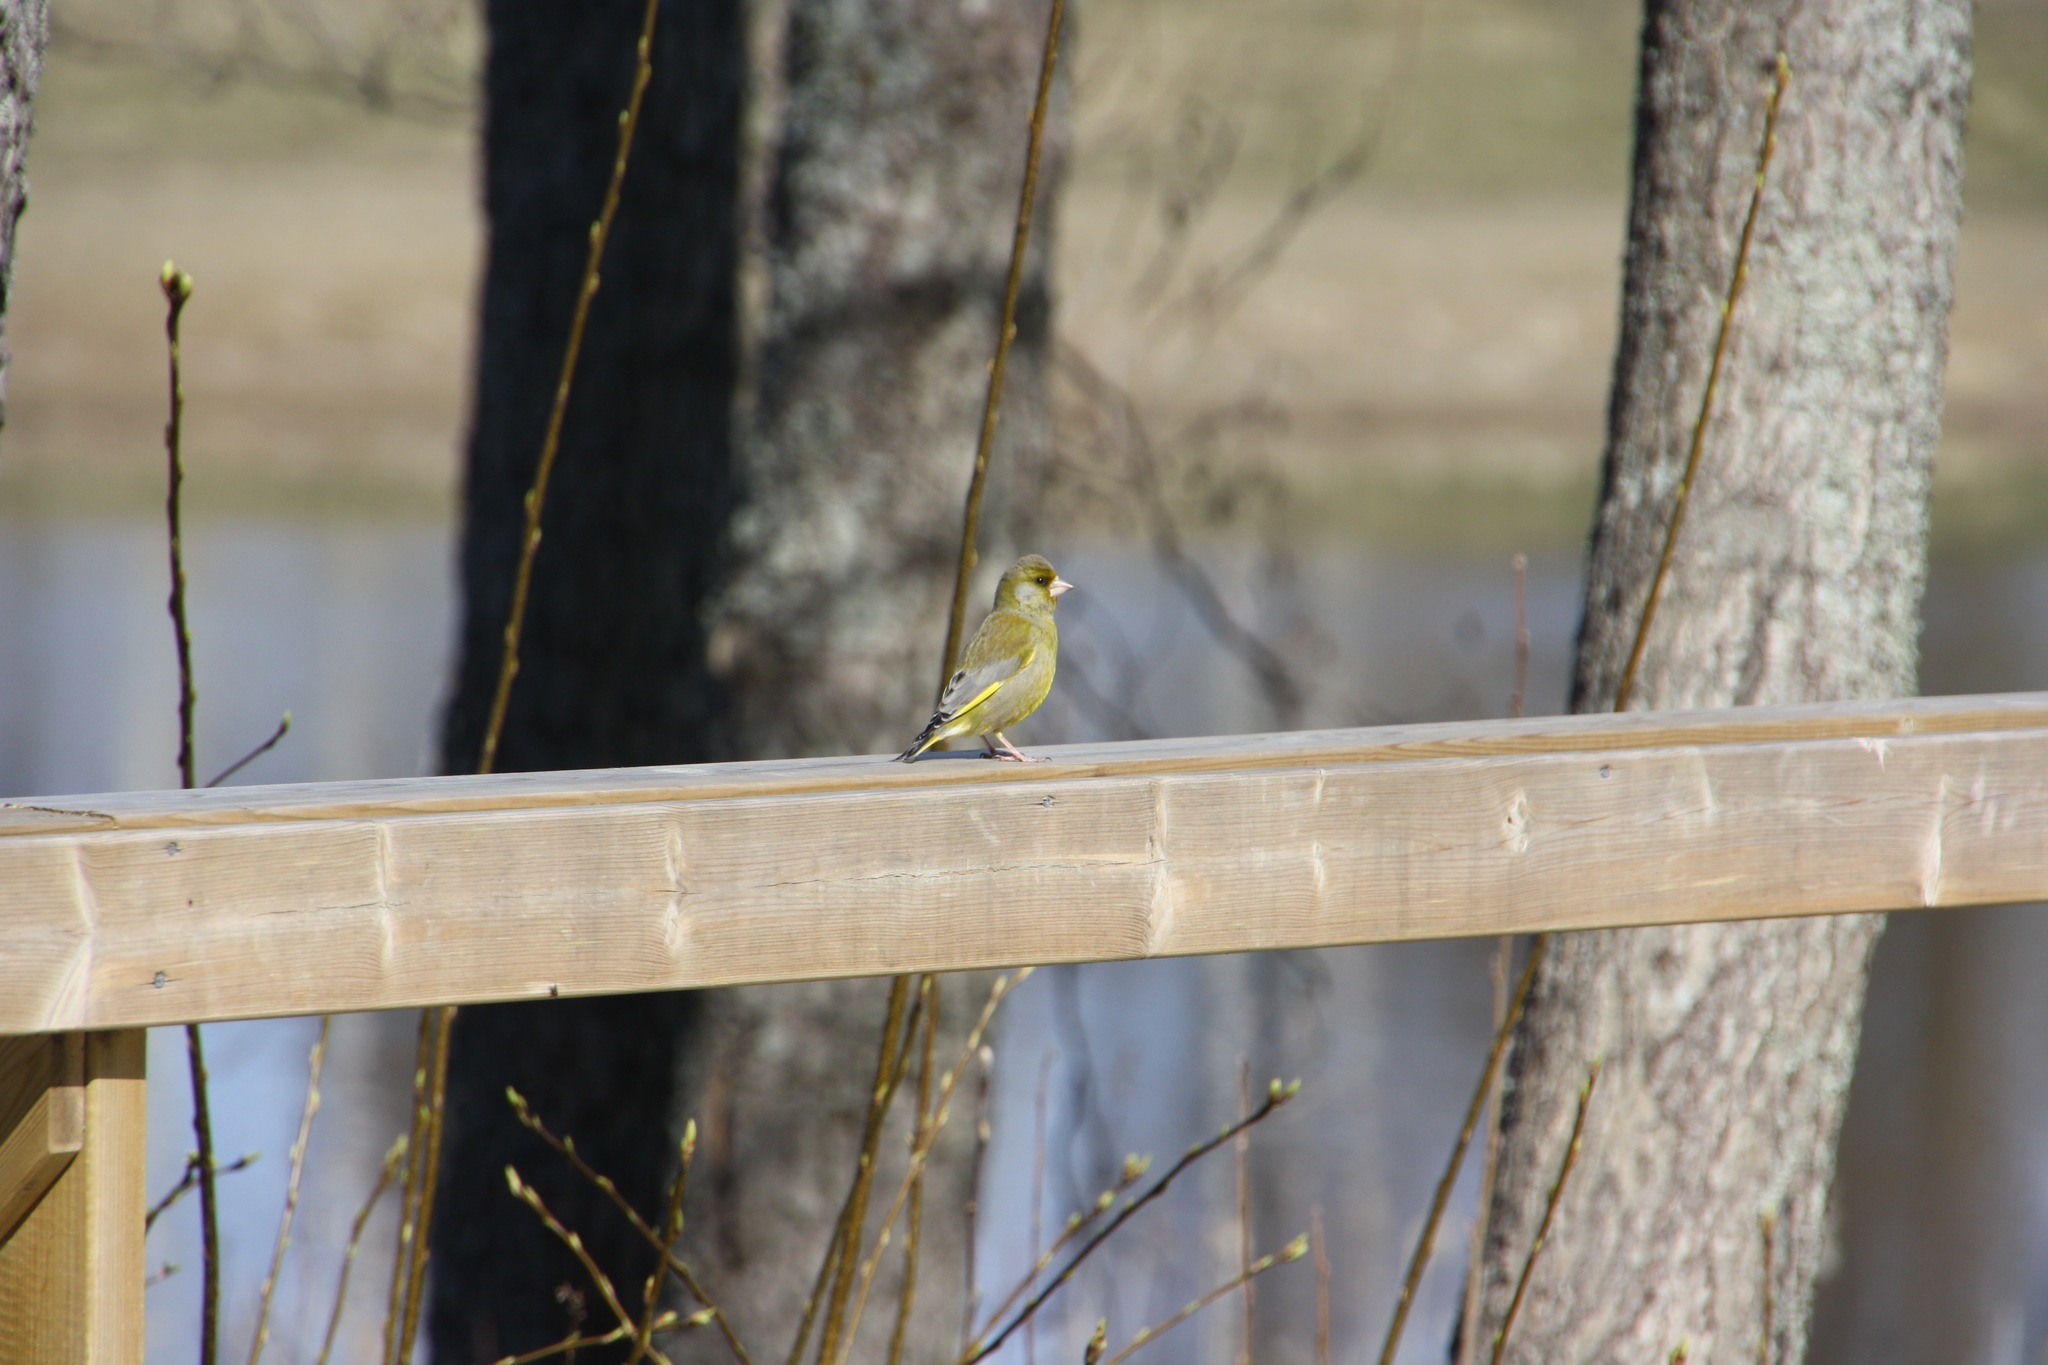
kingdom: Plantae
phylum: Tracheophyta
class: Liliopsida
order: Poales
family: Poaceae
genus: Chloris
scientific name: Chloris chloris
